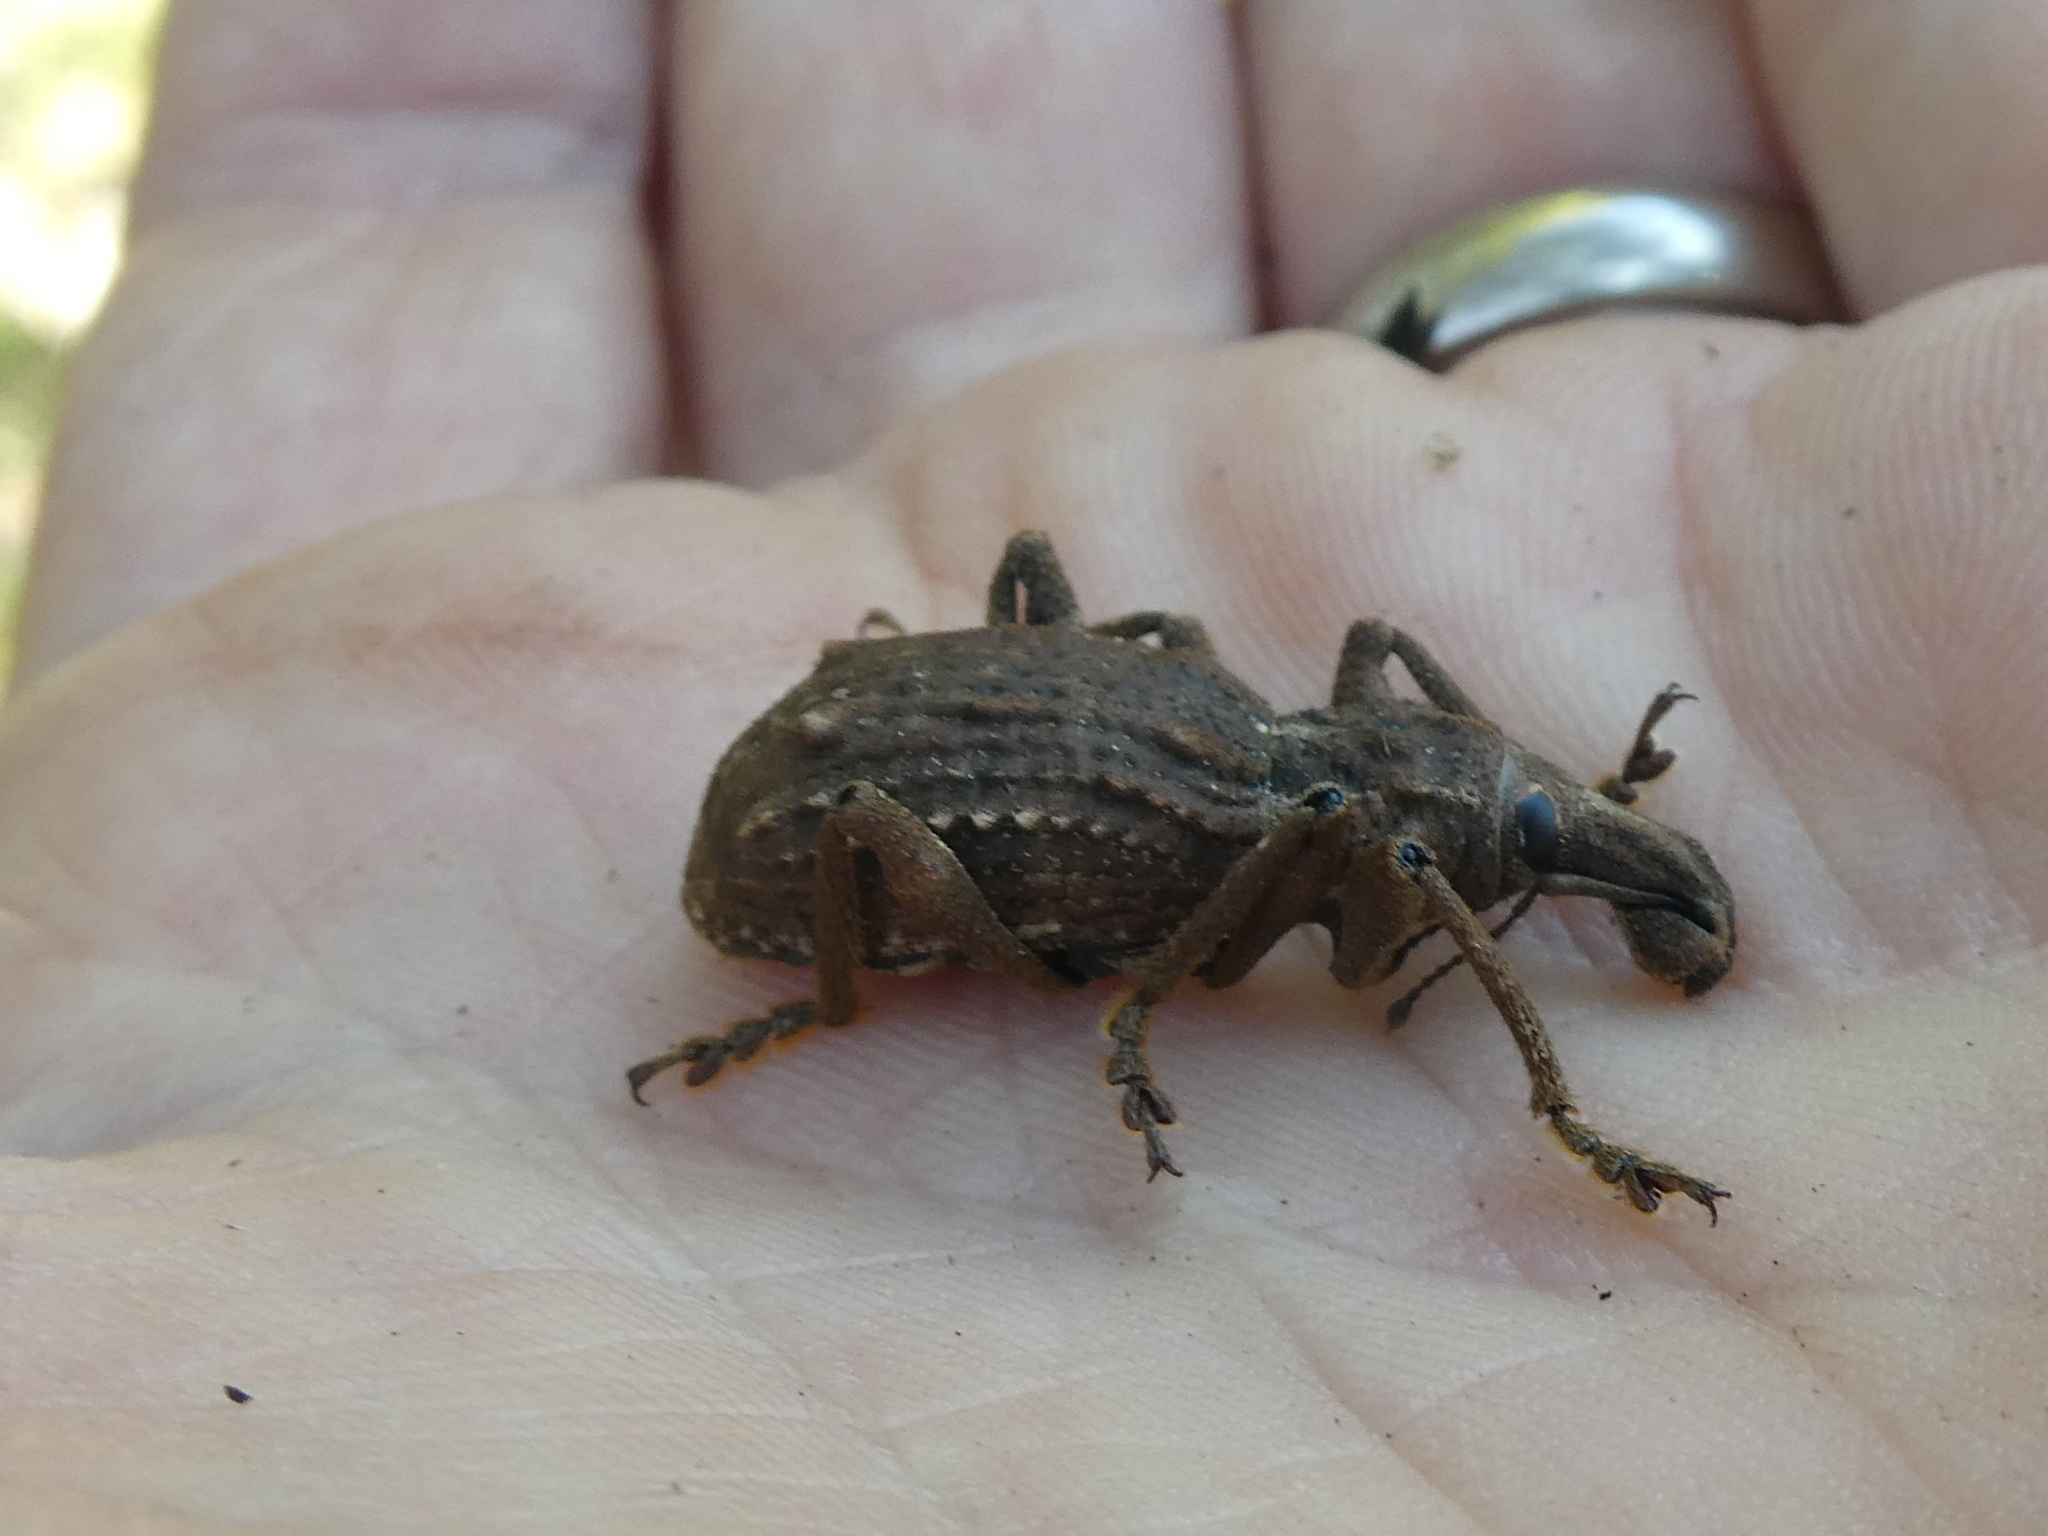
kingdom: Animalia
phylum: Arthropoda
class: Insecta
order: Coleoptera
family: Curculionidae
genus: Anagotus
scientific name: Anagotus fairburni
